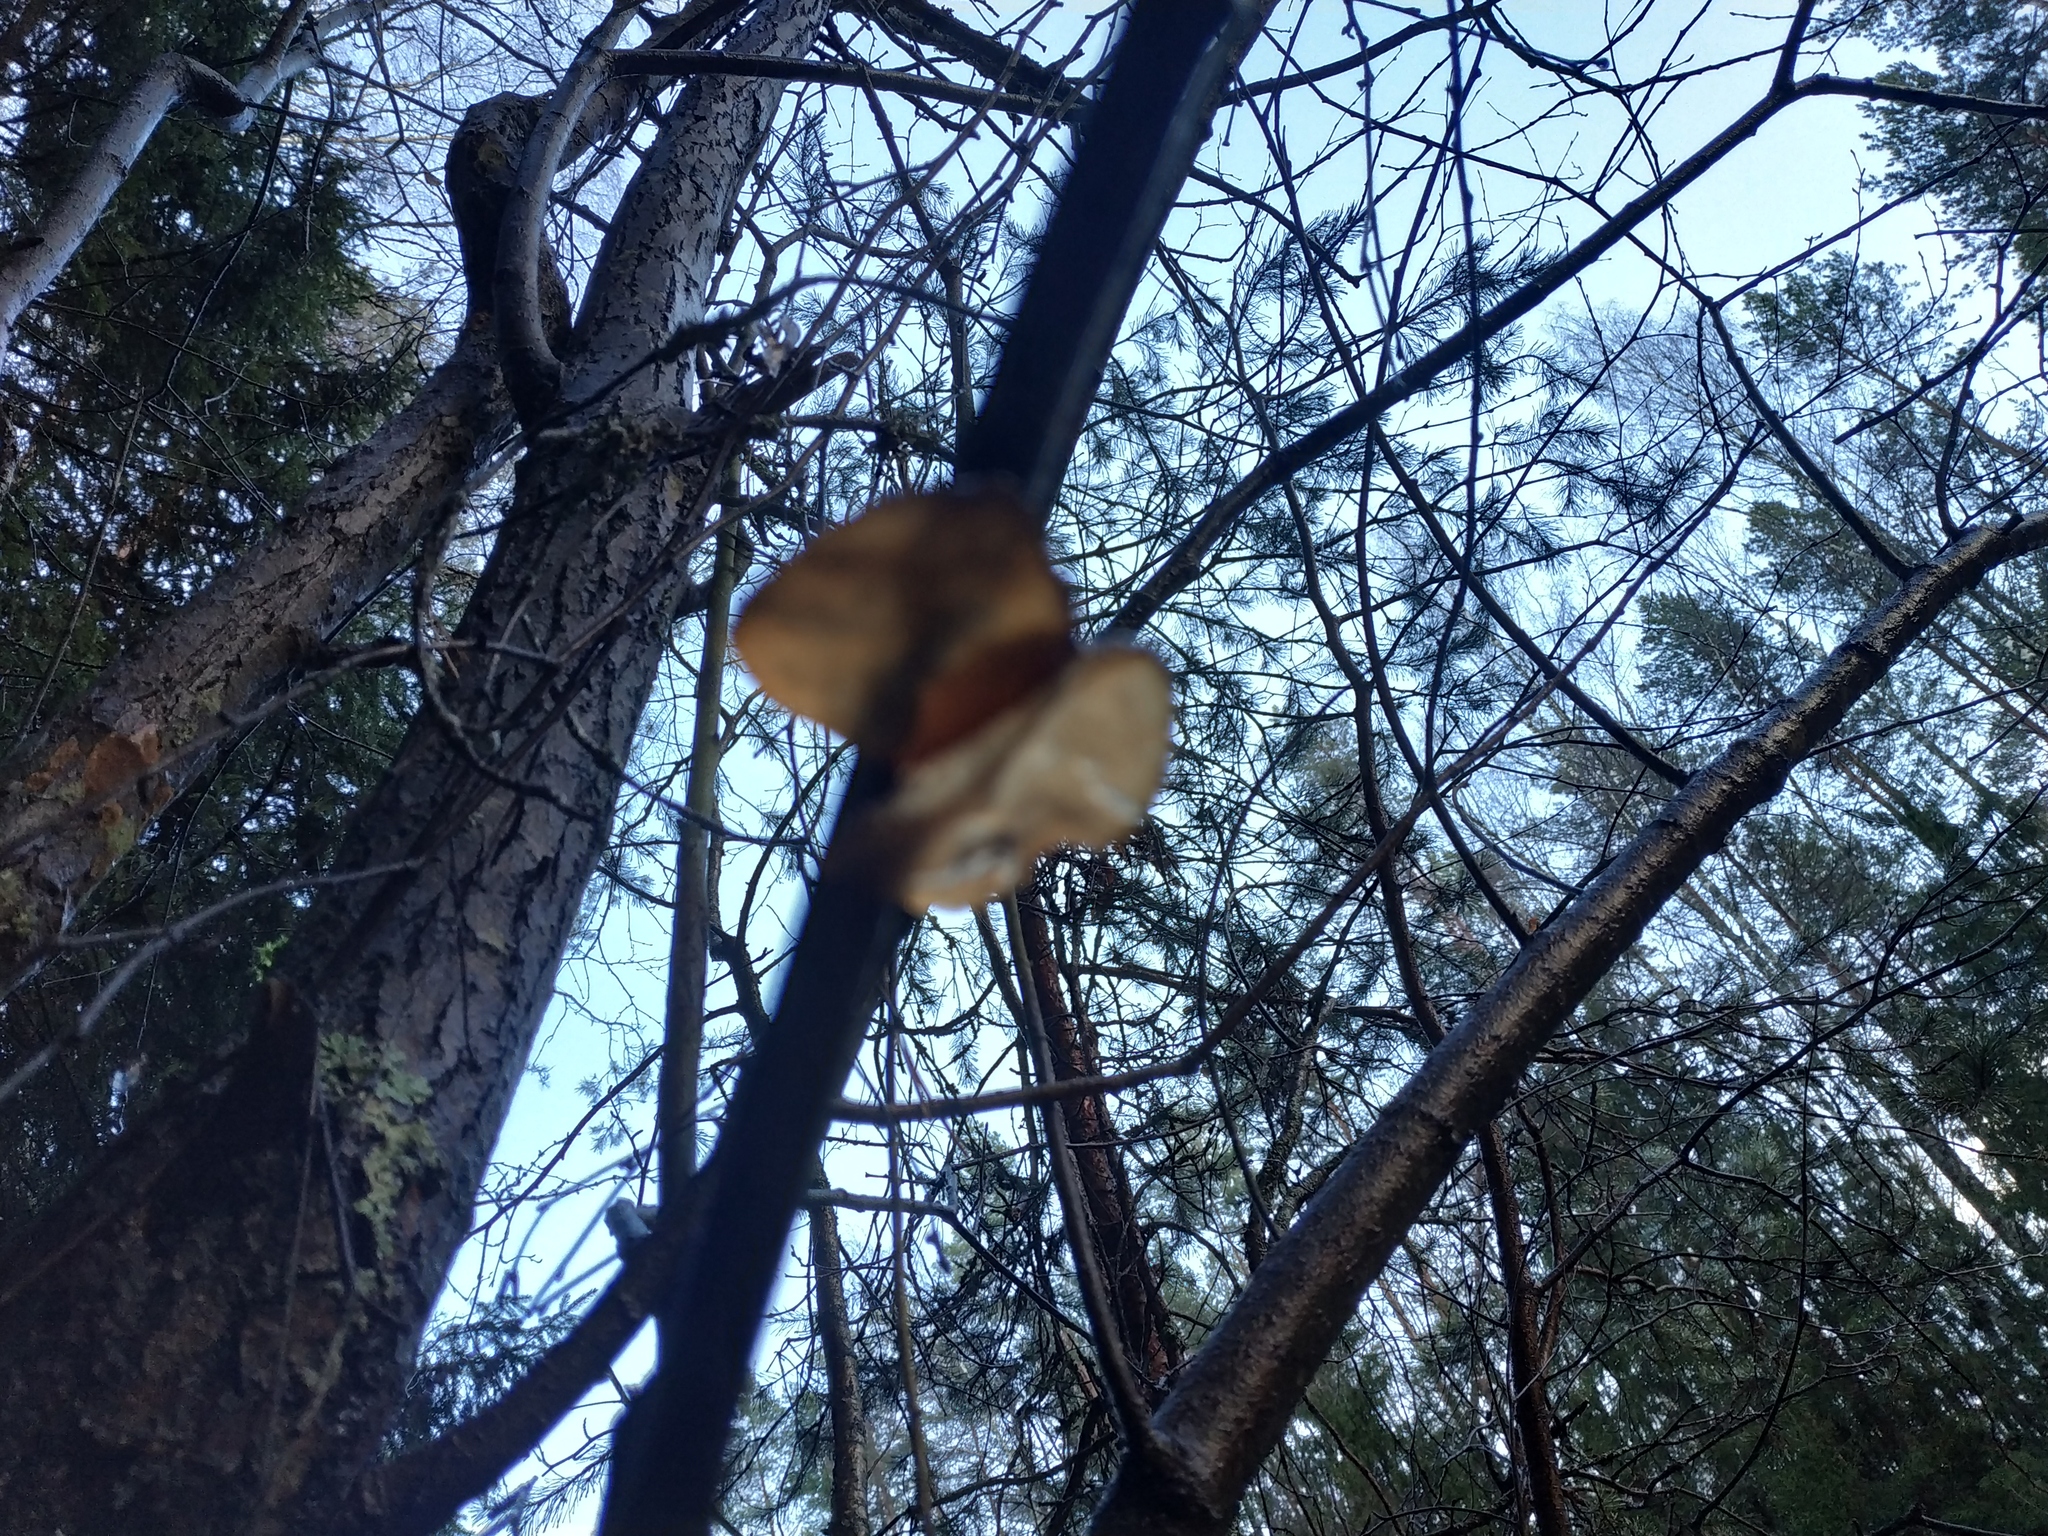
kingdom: Fungi
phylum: Basidiomycota
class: Agaricomycetes
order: Auriculariales
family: Auriculariaceae
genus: Exidia
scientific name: Exidia recisa
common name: Amber jelly
